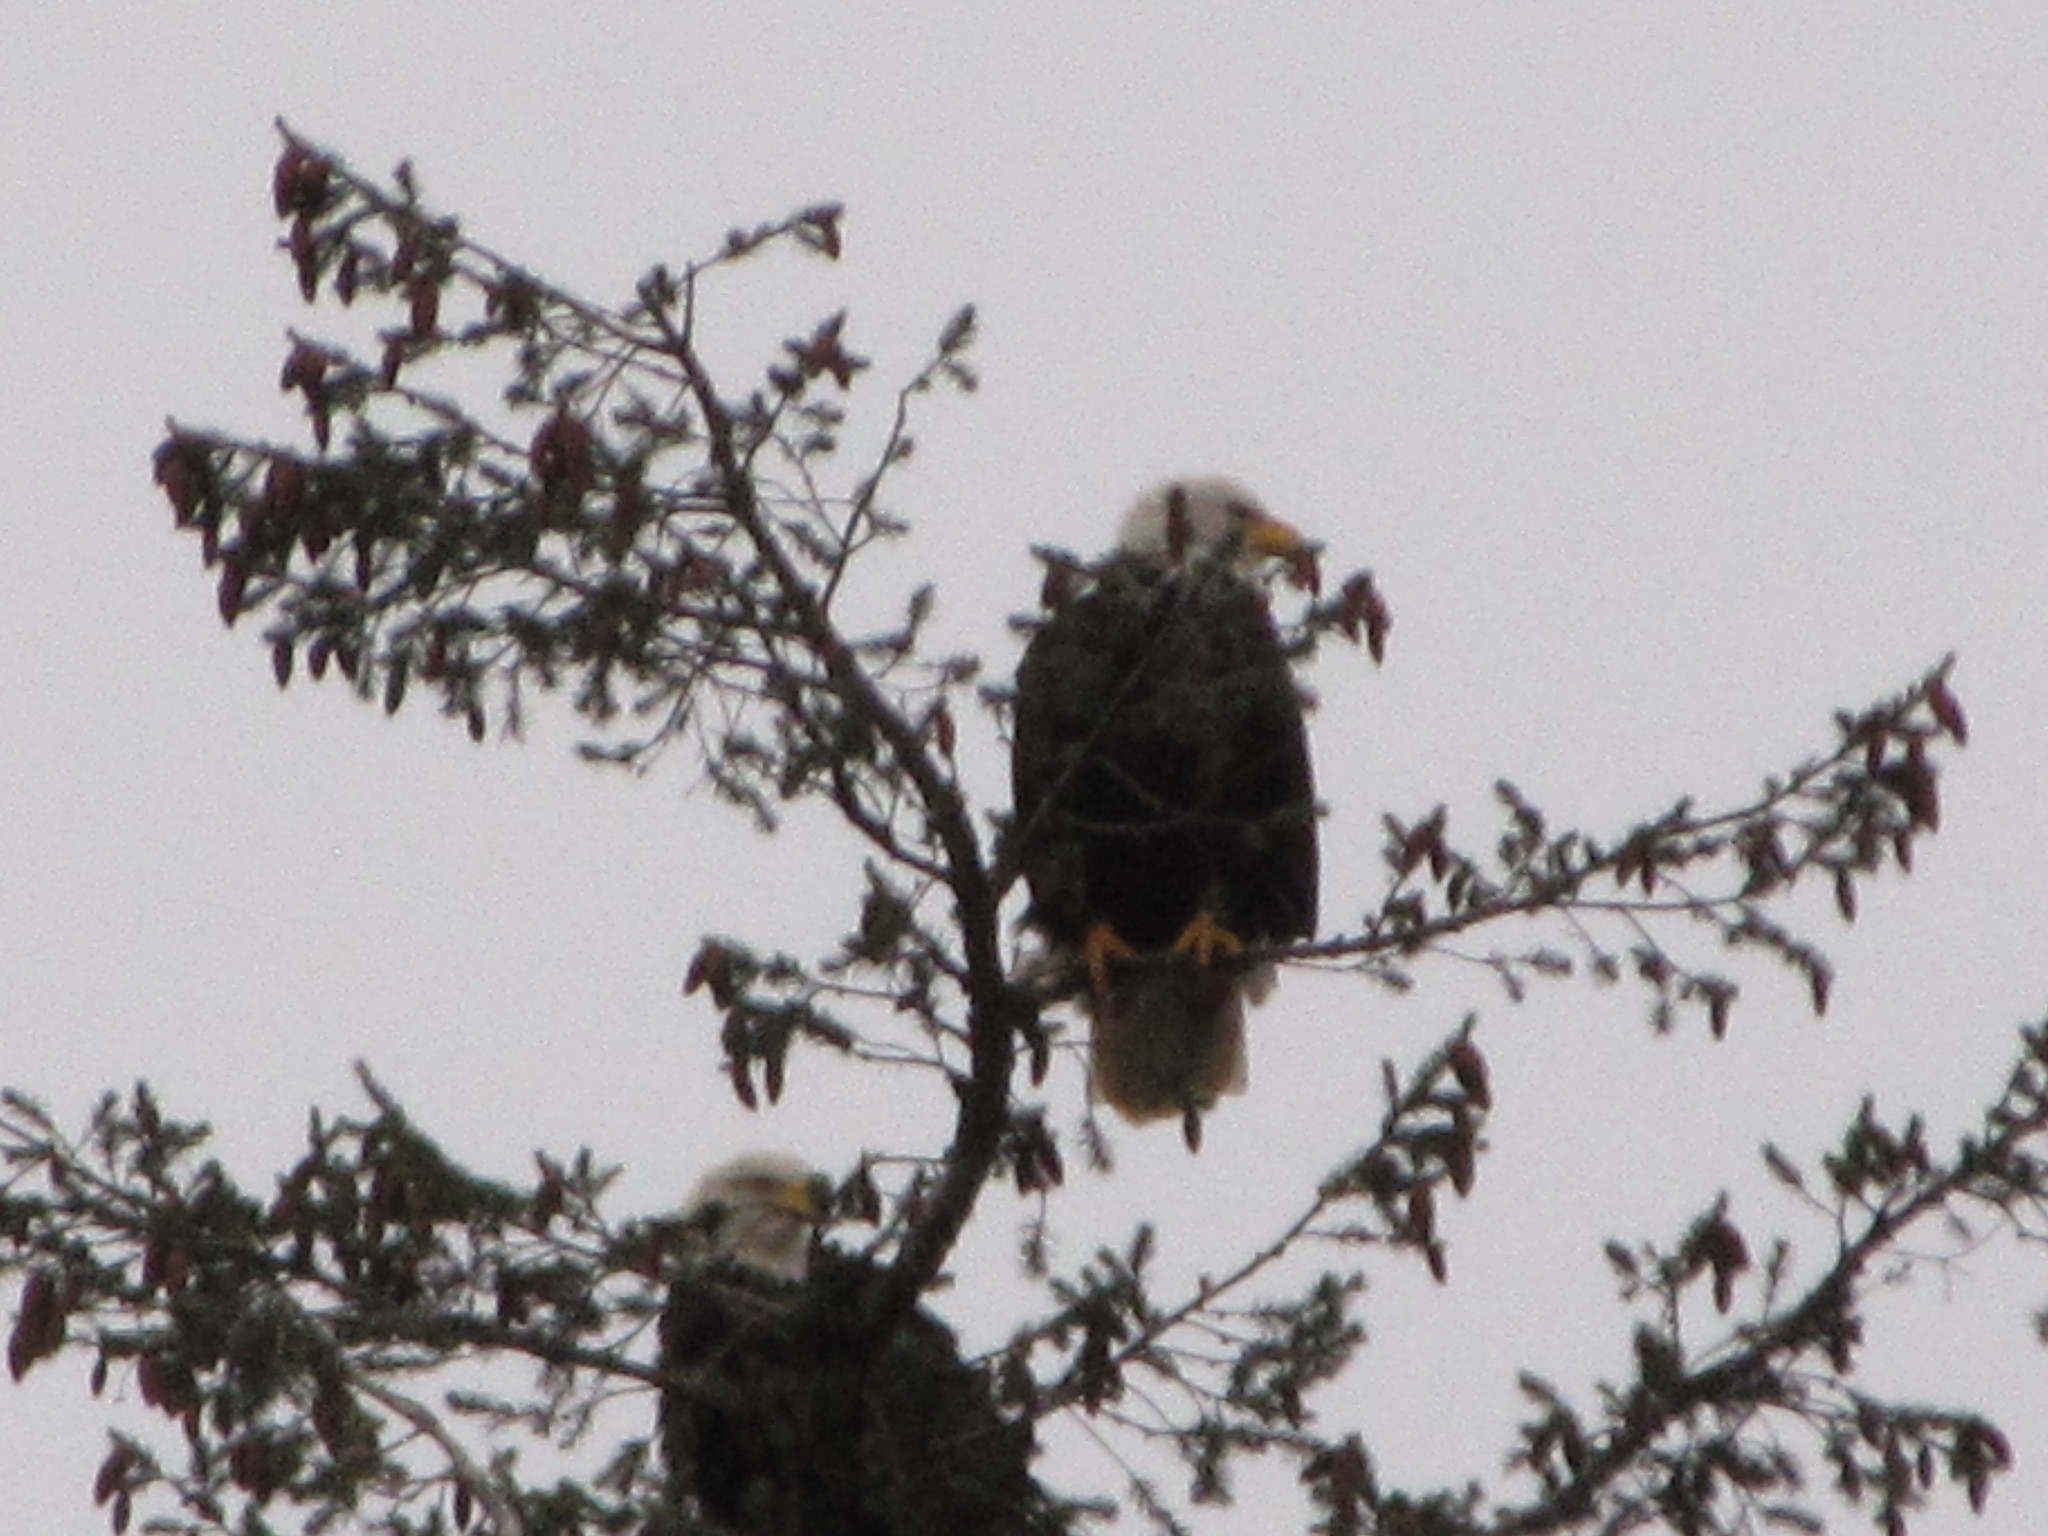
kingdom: Animalia
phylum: Chordata
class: Aves
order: Accipitriformes
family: Accipitridae
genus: Haliaeetus
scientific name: Haliaeetus leucocephalus
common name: Bald eagle
